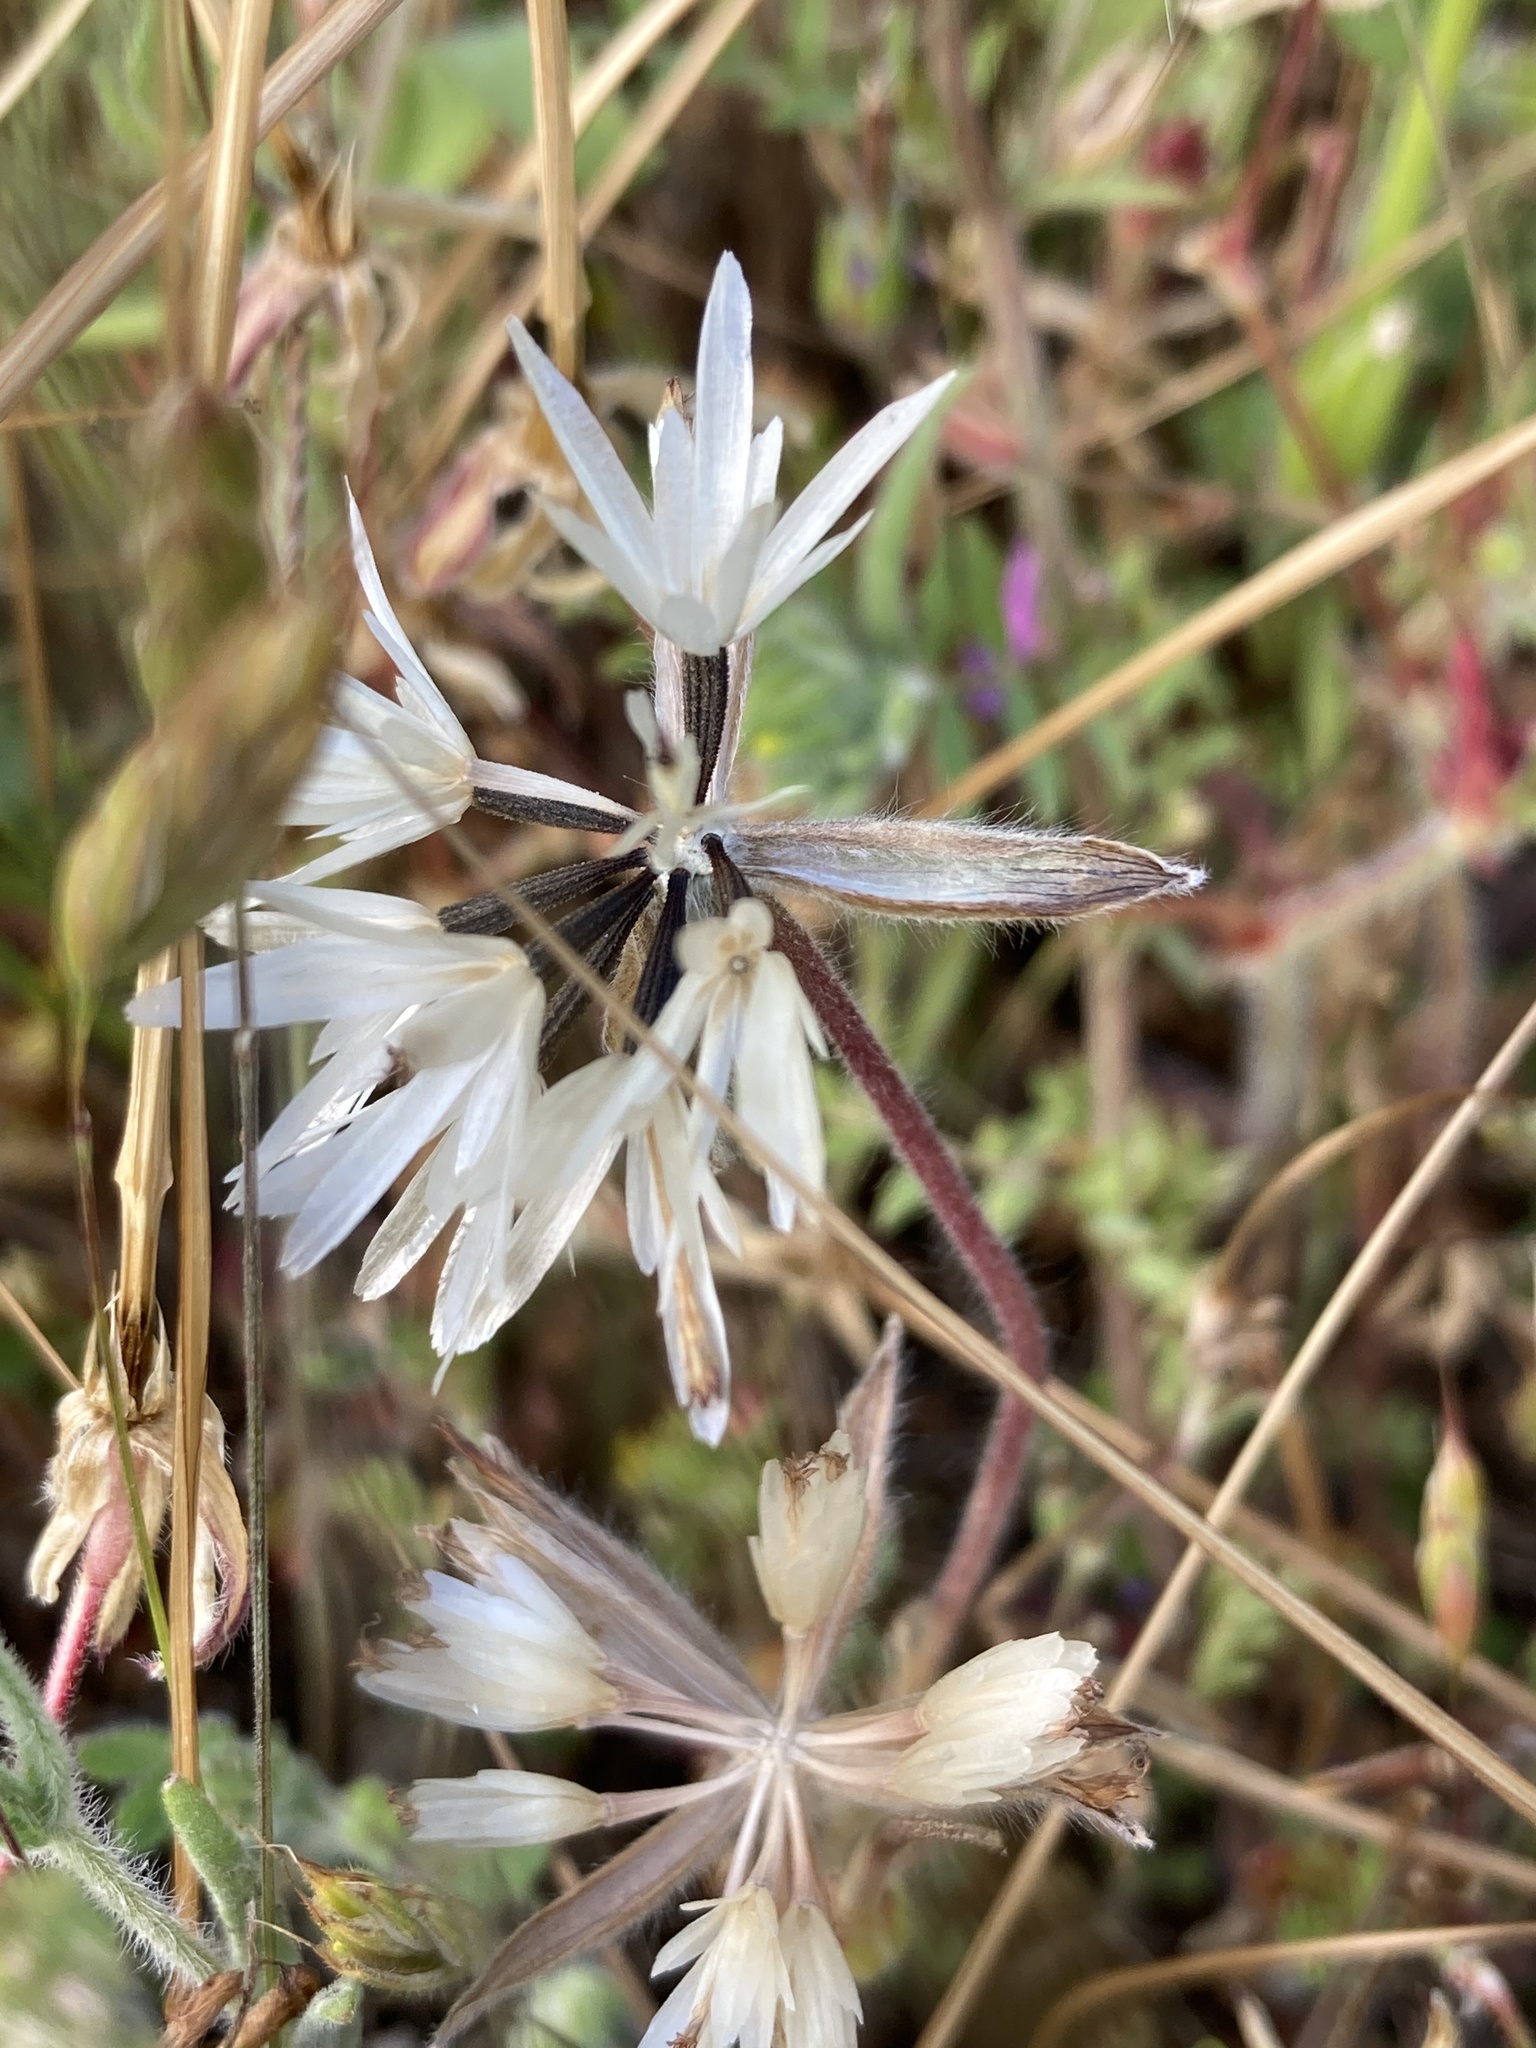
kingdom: Plantae
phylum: Tracheophyta
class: Magnoliopsida
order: Asterales
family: Asteraceae
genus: Achyrachaena
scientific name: Achyrachaena mollis
